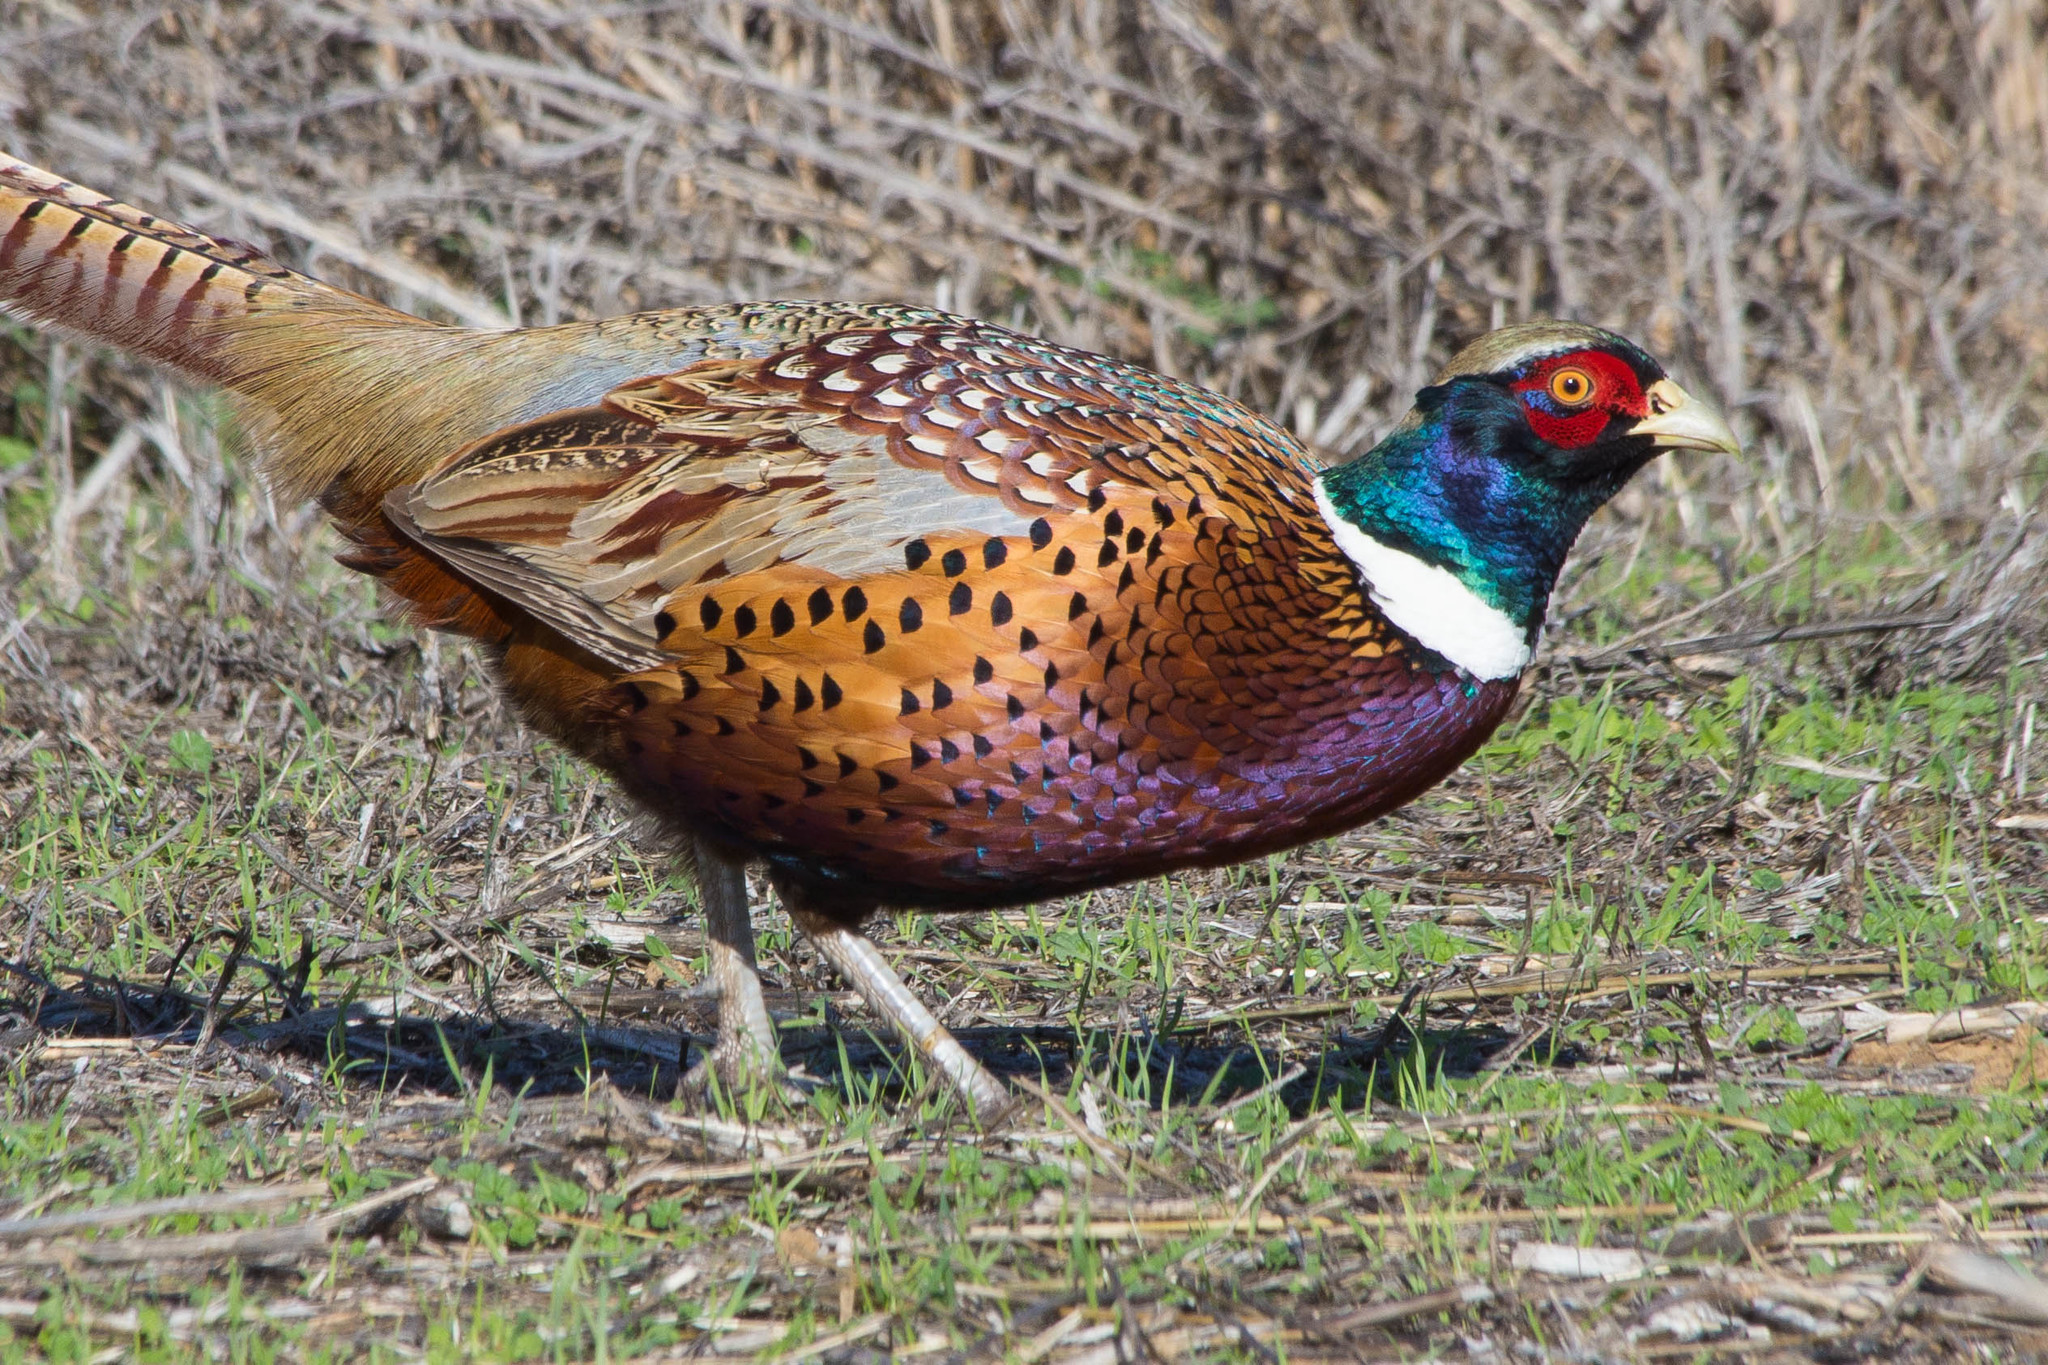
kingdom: Animalia
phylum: Chordata
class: Aves
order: Galliformes
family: Phasianidae
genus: Phasianus
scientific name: Phasianus colchicus
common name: Common pheasant
